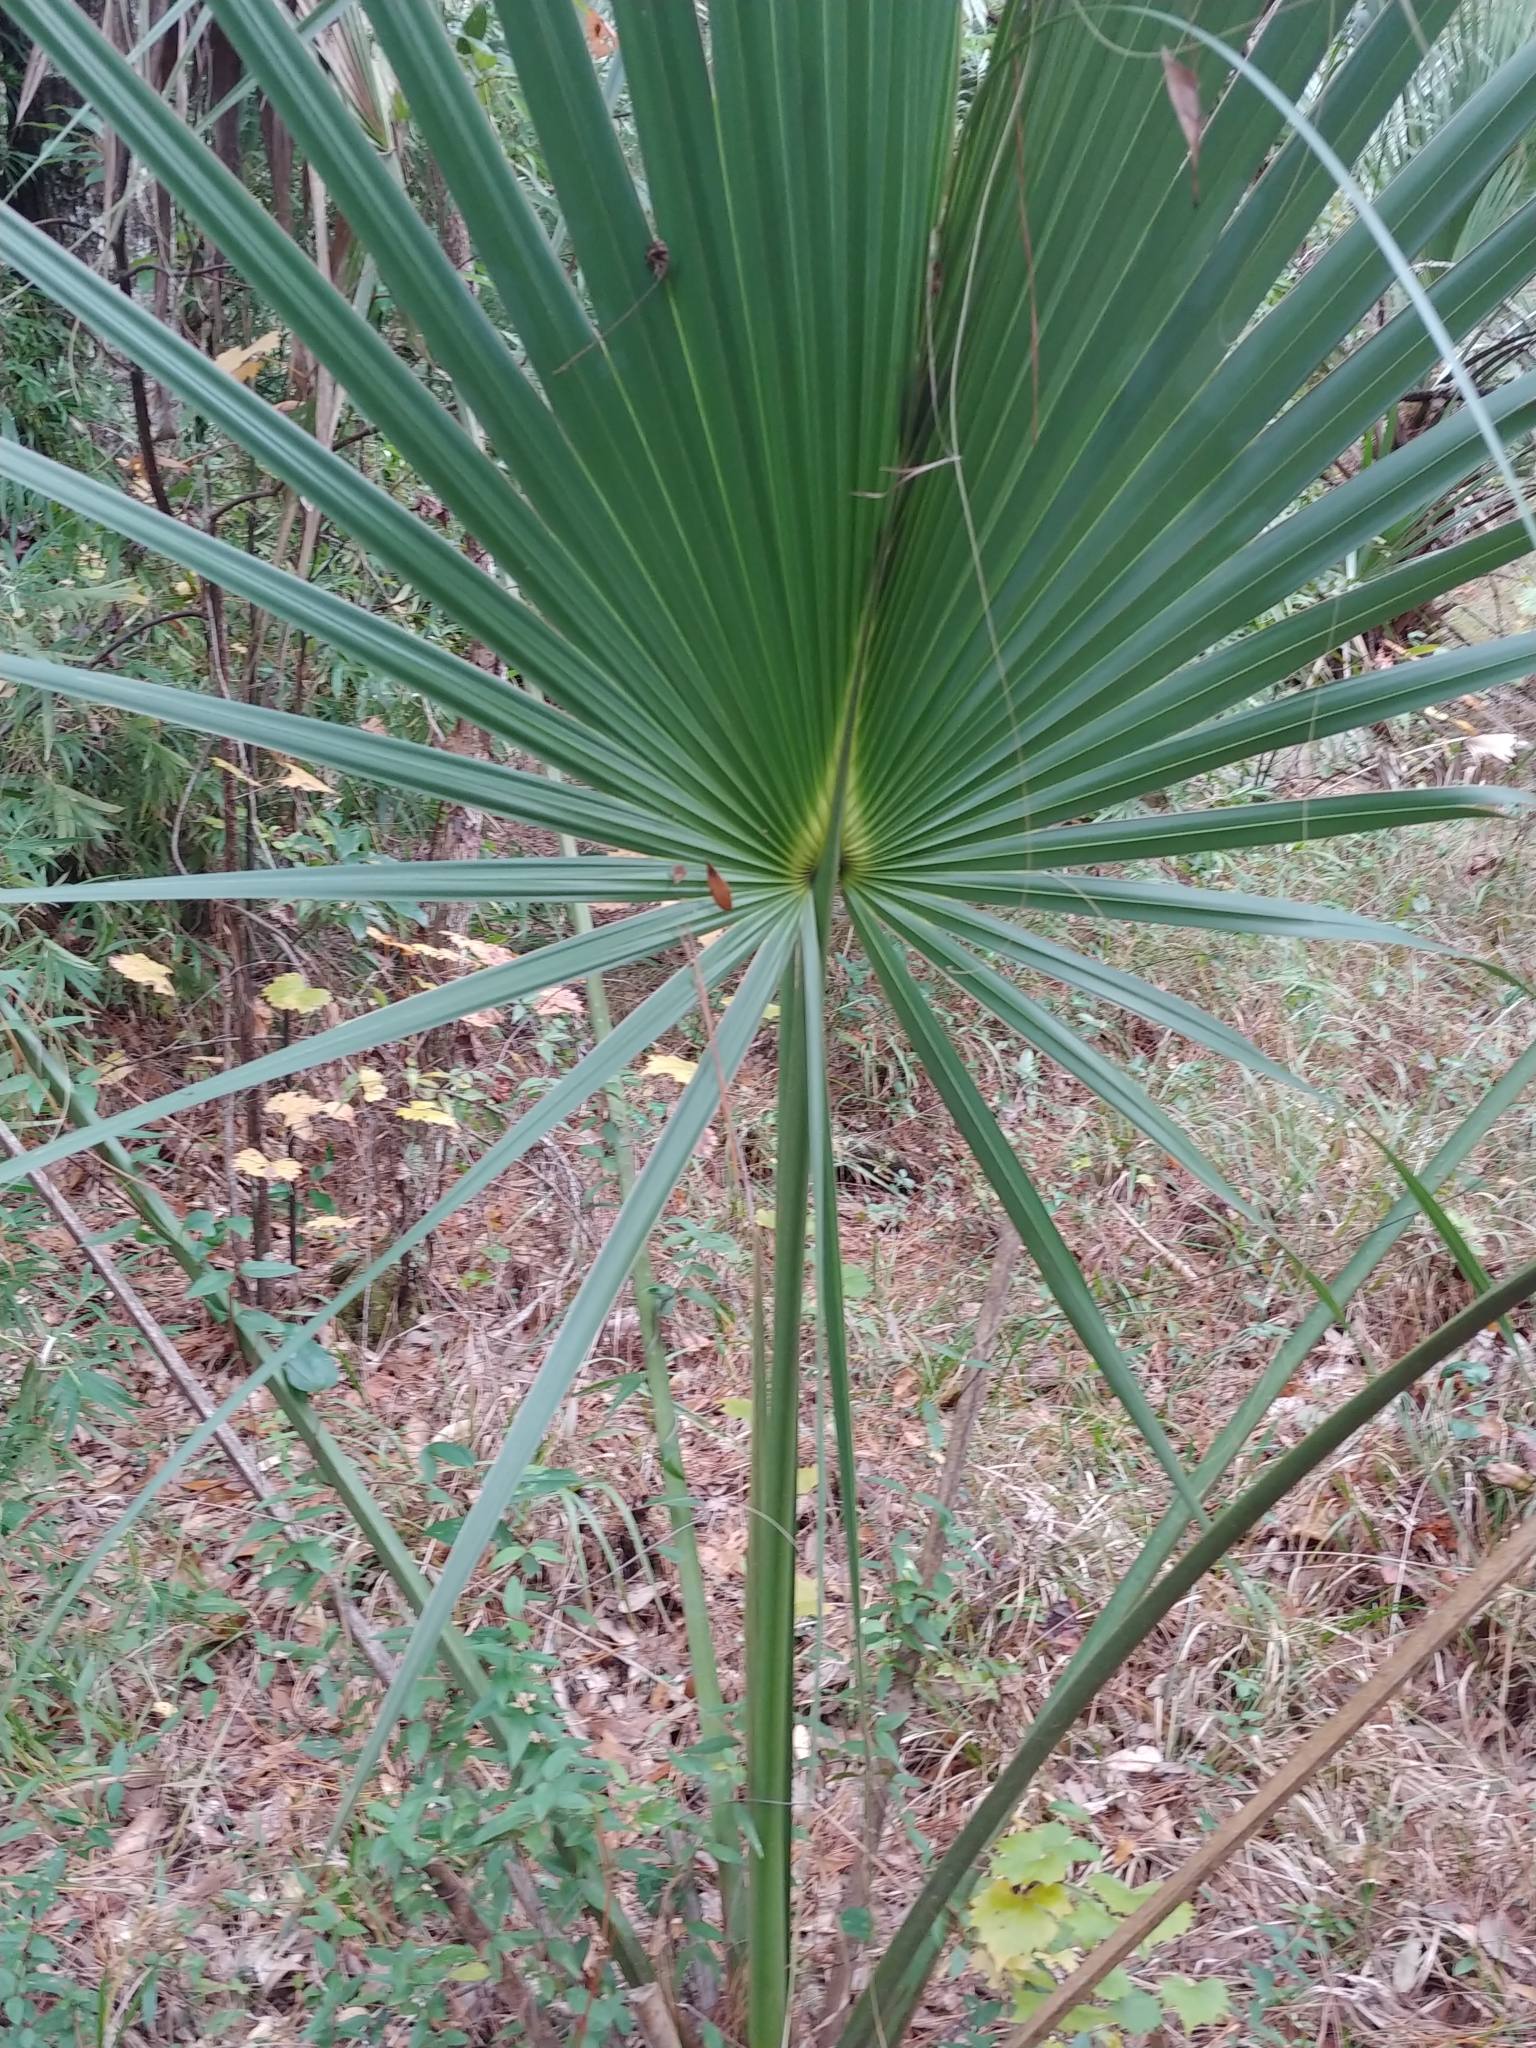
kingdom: Plantae
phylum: Tracheophyta
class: Liliopsida
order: Arecales
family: Arecaceae
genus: Sabal
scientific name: Sabal palmetto
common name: Blue palmetto
